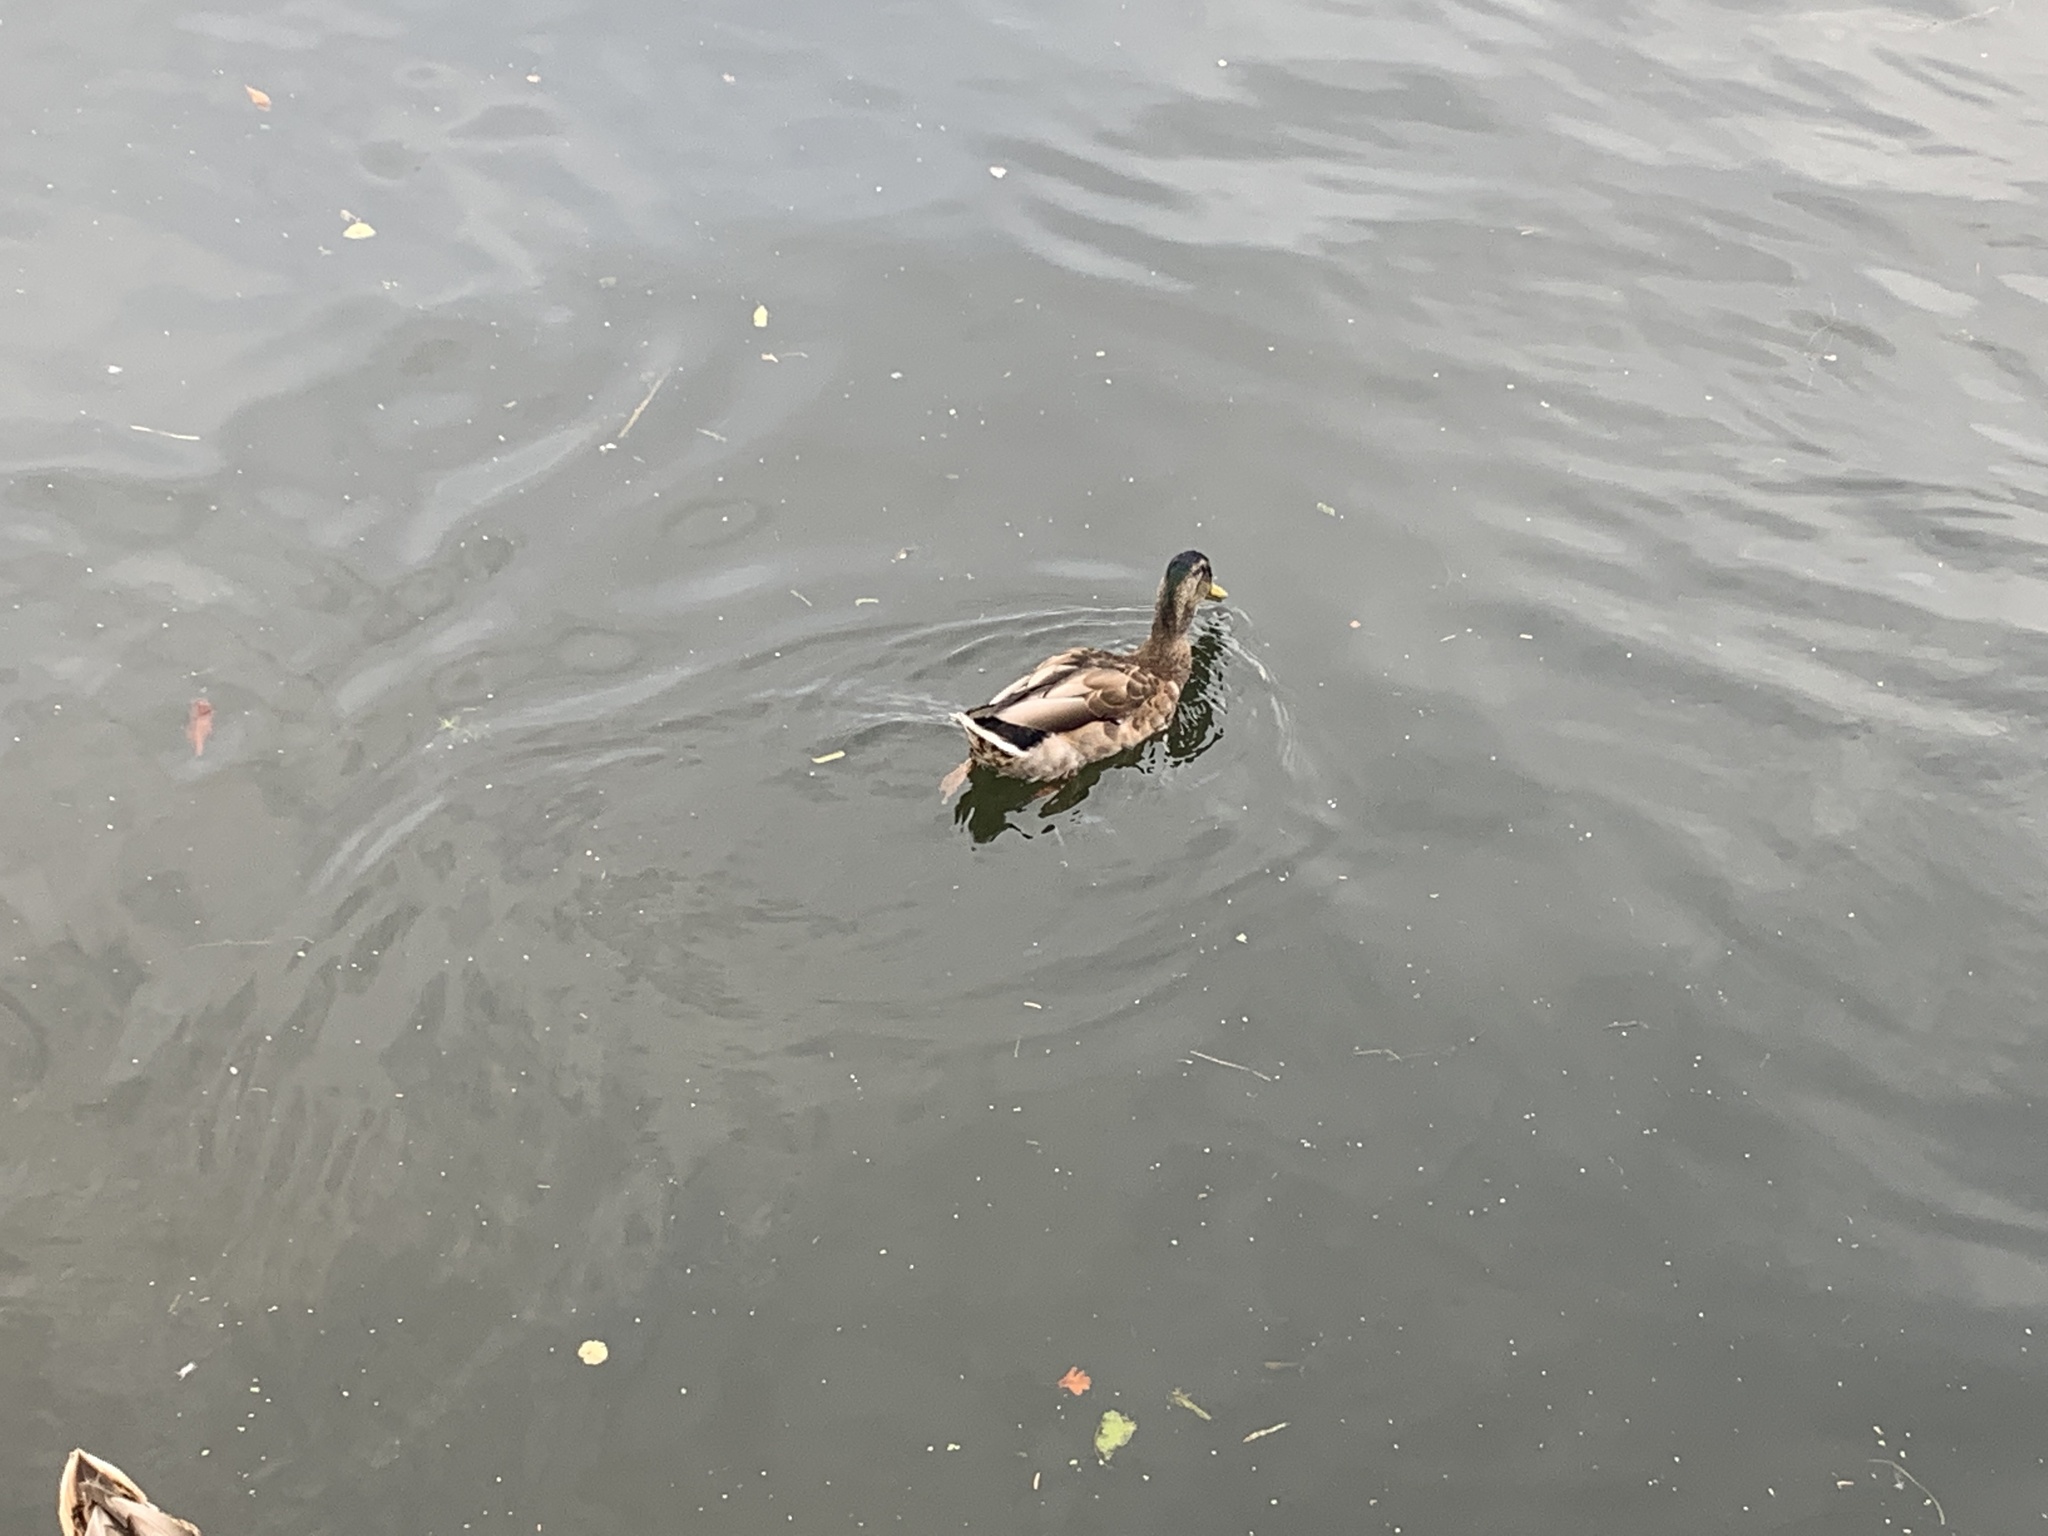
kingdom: Animalia
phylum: Chordata
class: Aves
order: Anseriformes
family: Anatidae
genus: Anas
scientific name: Anas platyrhynchos
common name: Mallard
